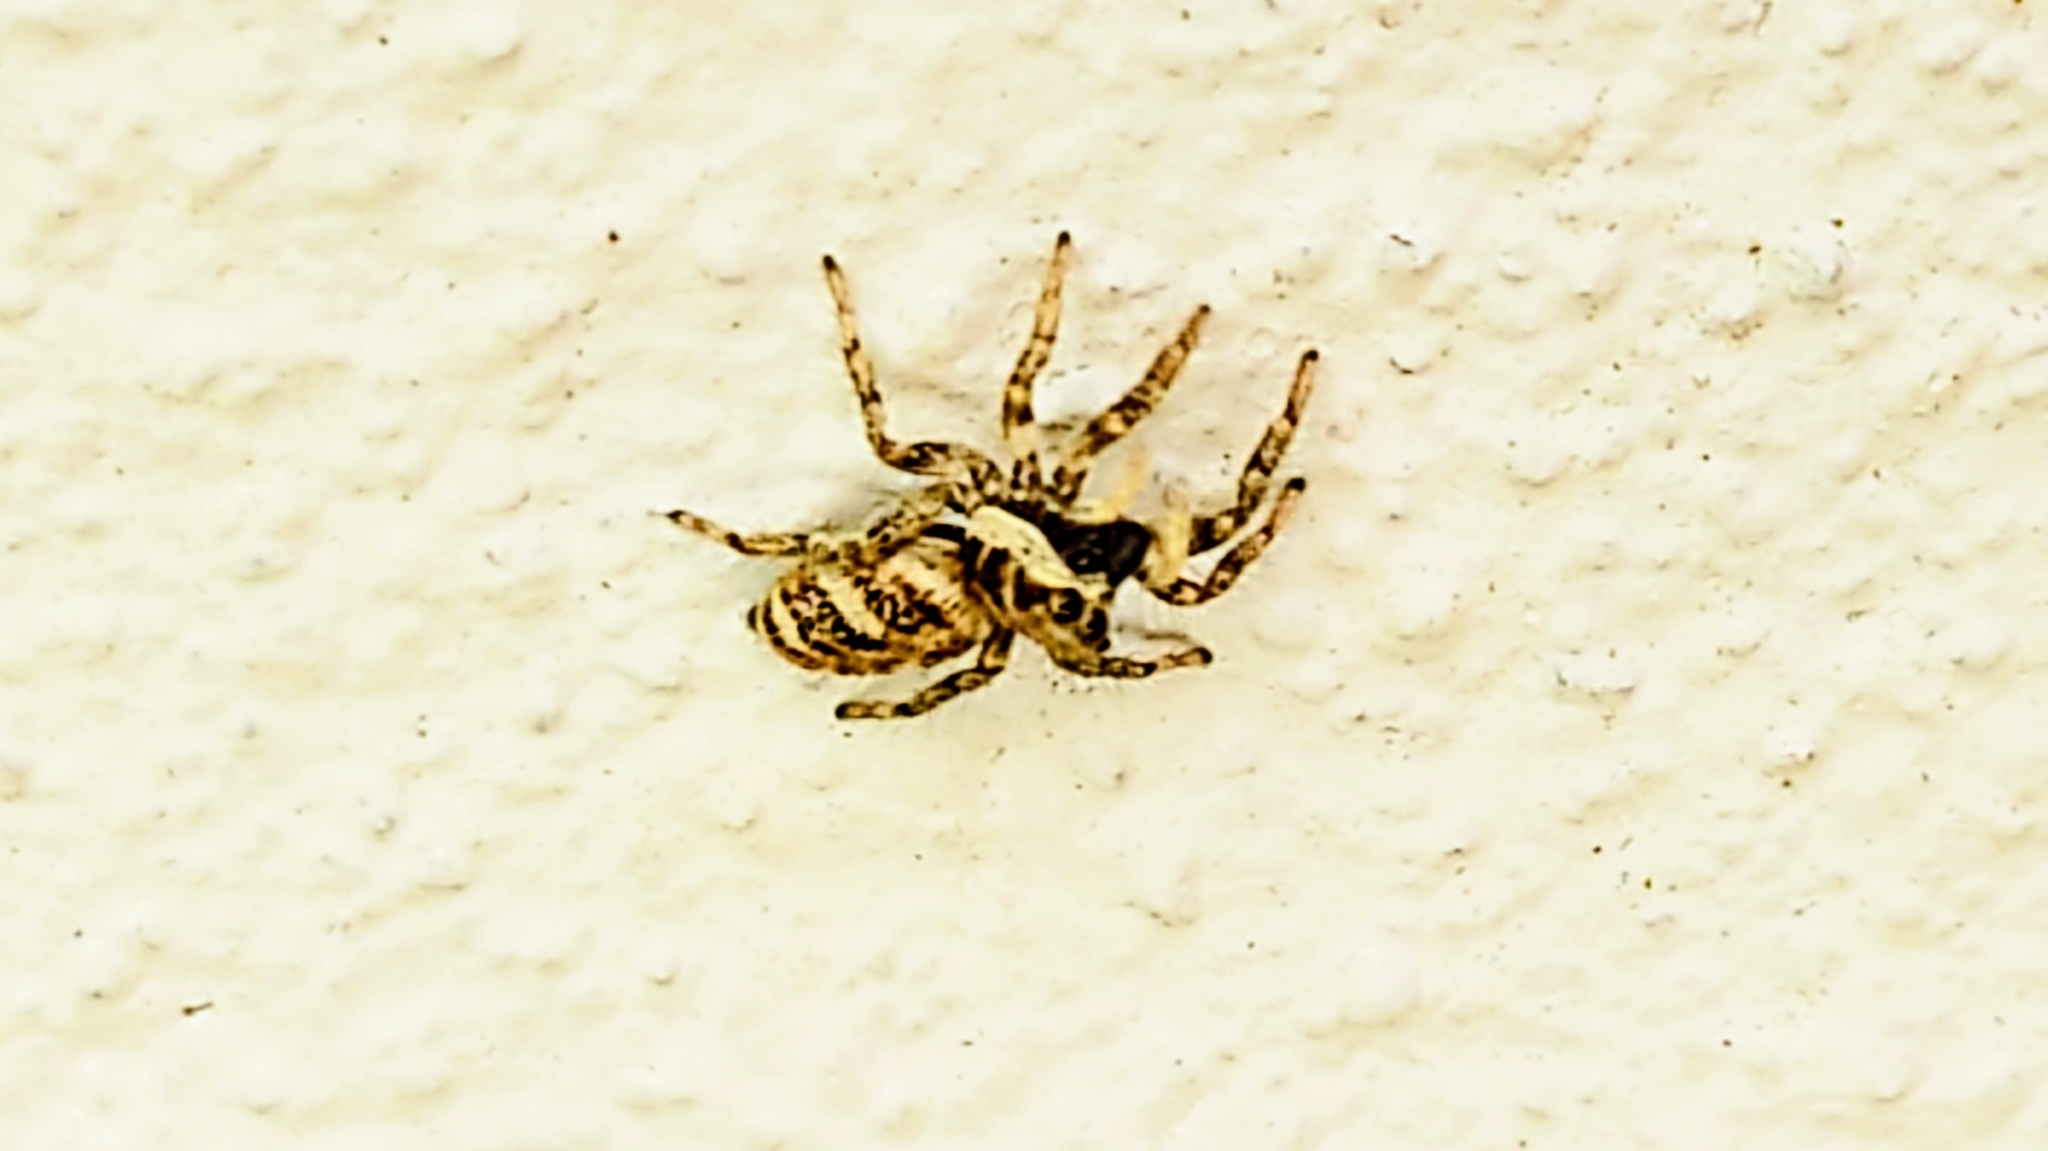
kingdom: Animalia
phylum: Arthropoda
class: Arachnida
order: Araneae
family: Salticidae
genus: Salticus
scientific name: Salticus scenicus
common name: Zebra jumper
